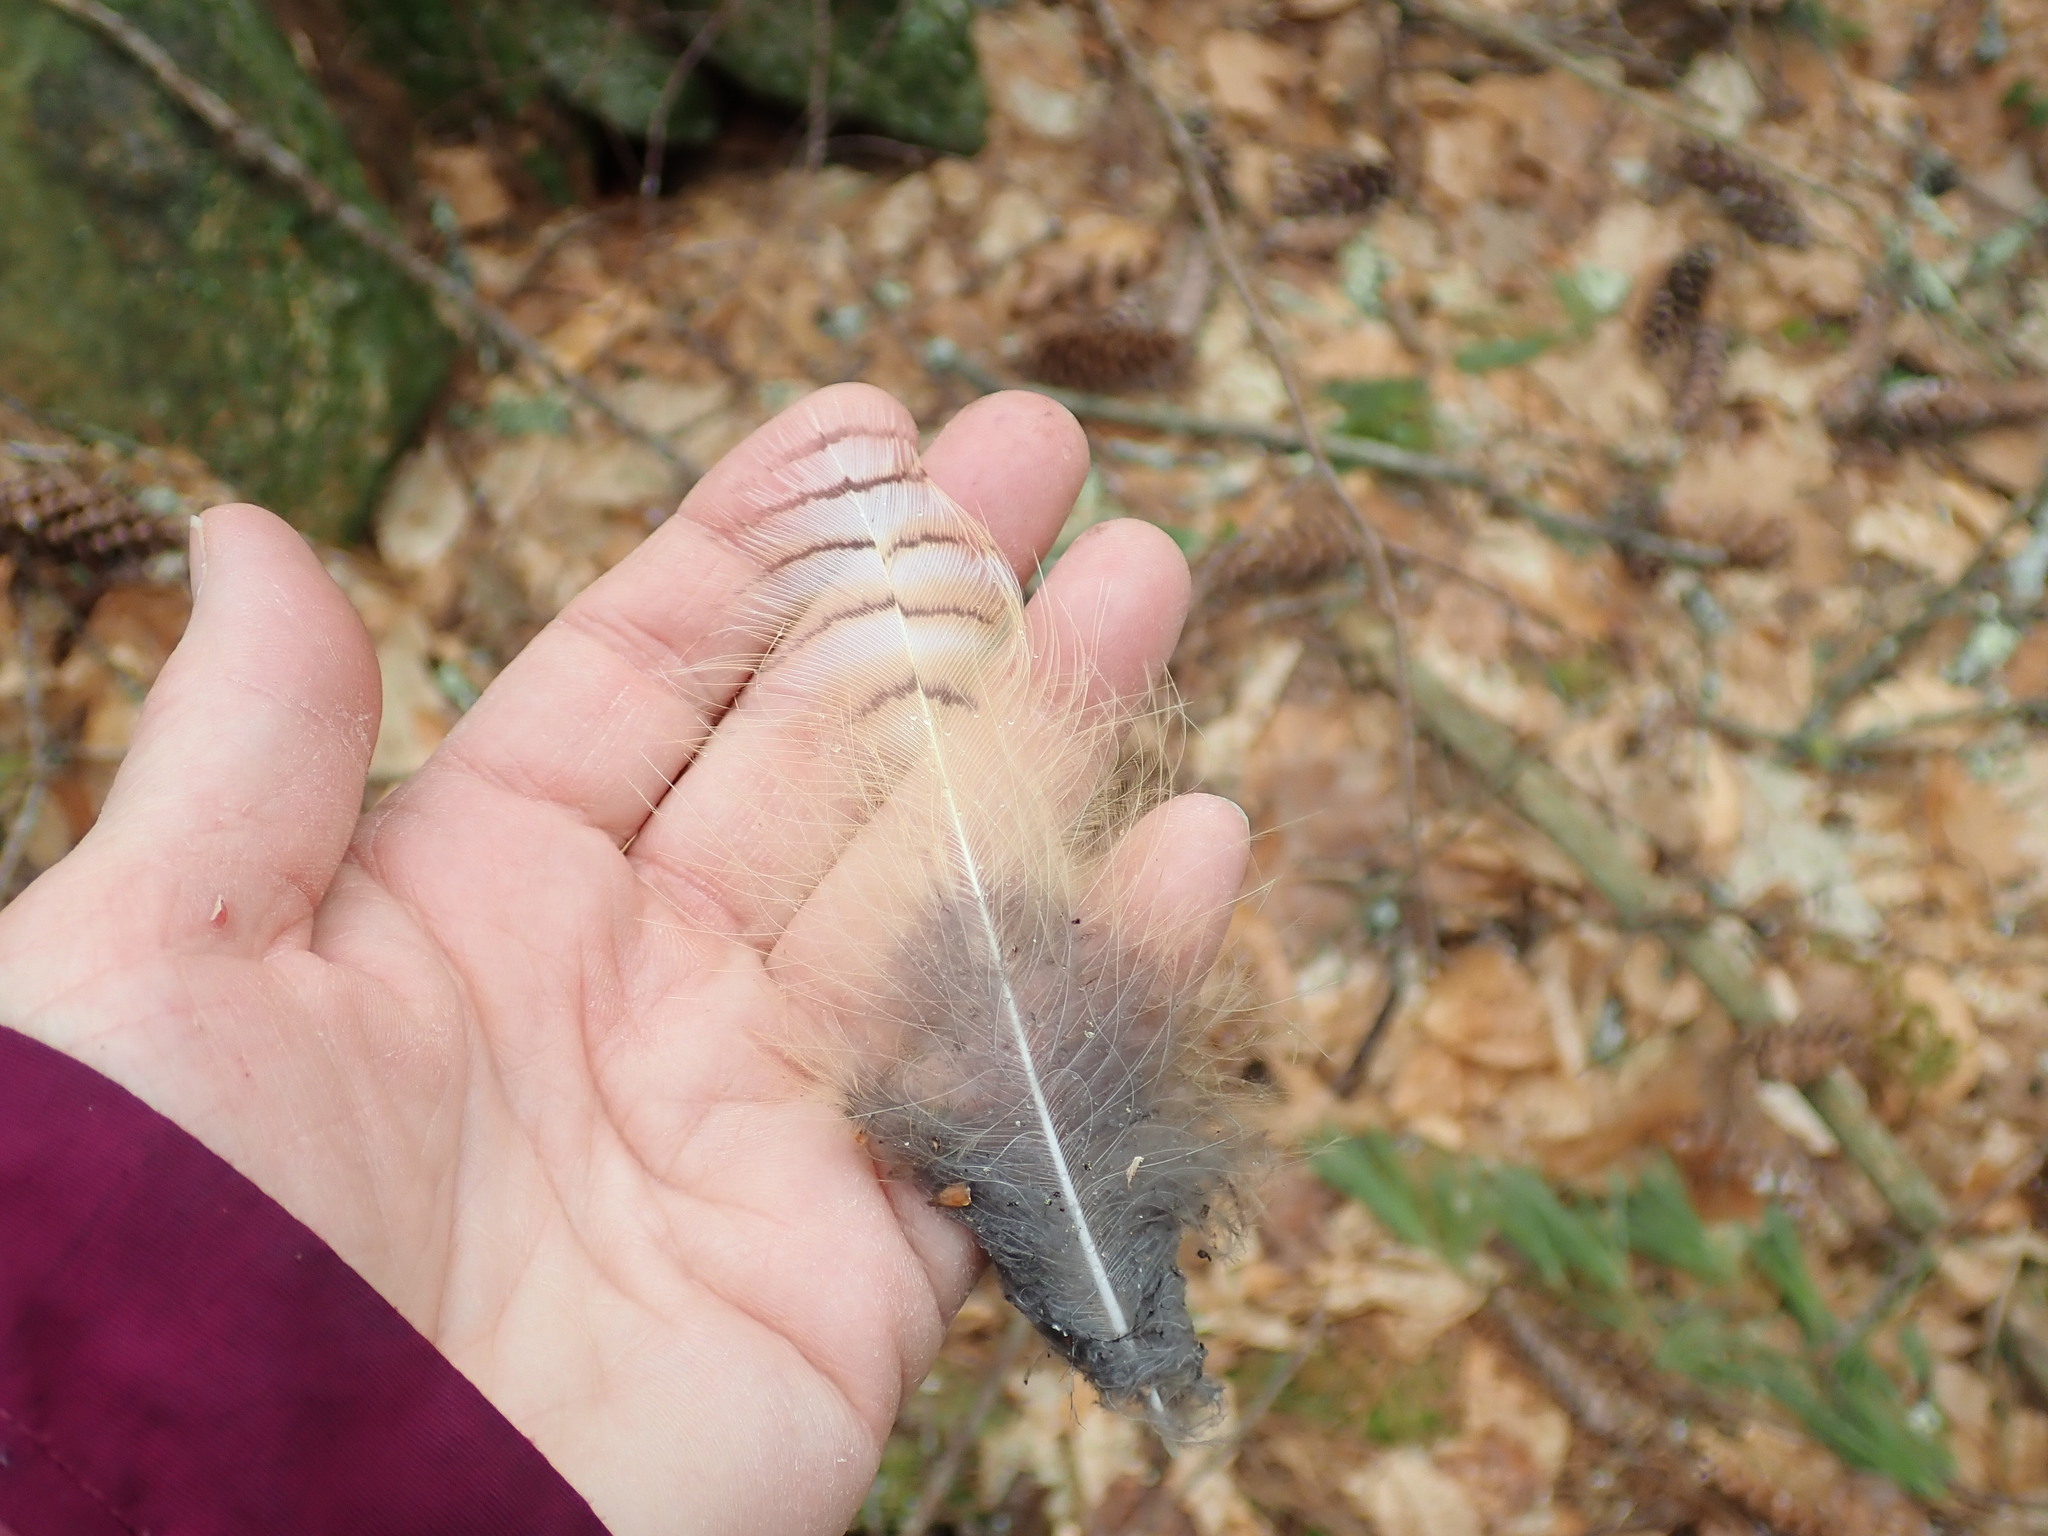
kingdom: Animalia
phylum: Chordata
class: Aves
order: Strigiformes
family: Strigidae
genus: Bubo
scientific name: Bubo virginianus
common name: Great horned owl
